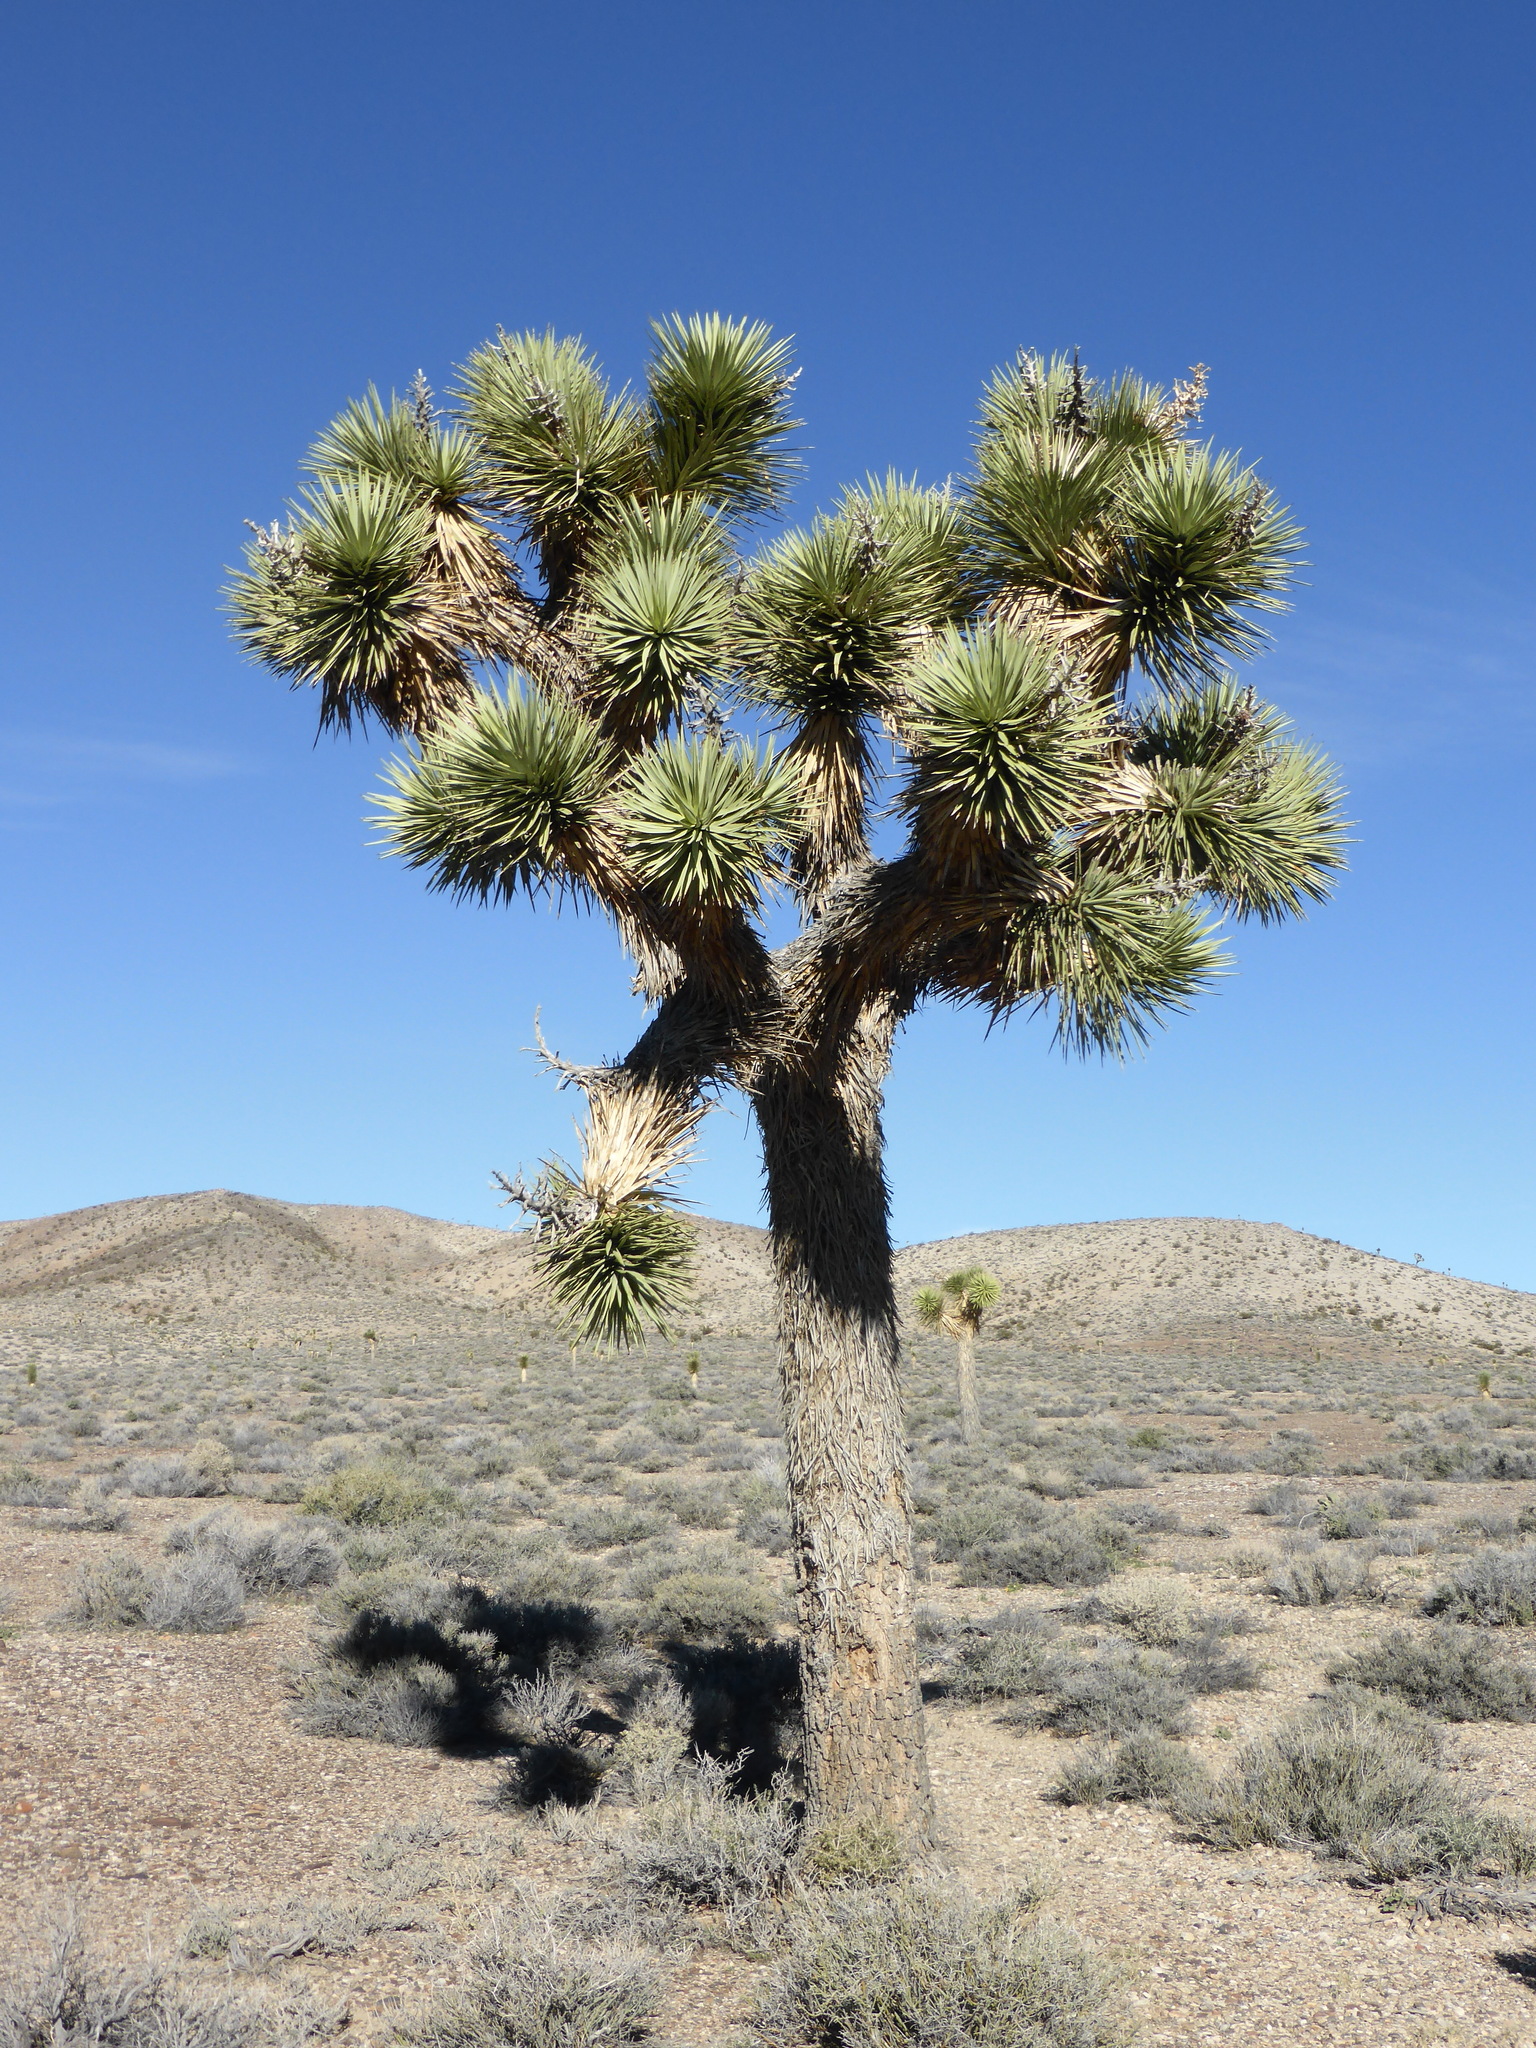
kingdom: Plantae
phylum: Tracheophyta
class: Liliopsida
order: Asparagales
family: Asparagaceae
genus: Yucca
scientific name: Yucca brevifolia
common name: Joshua tree
